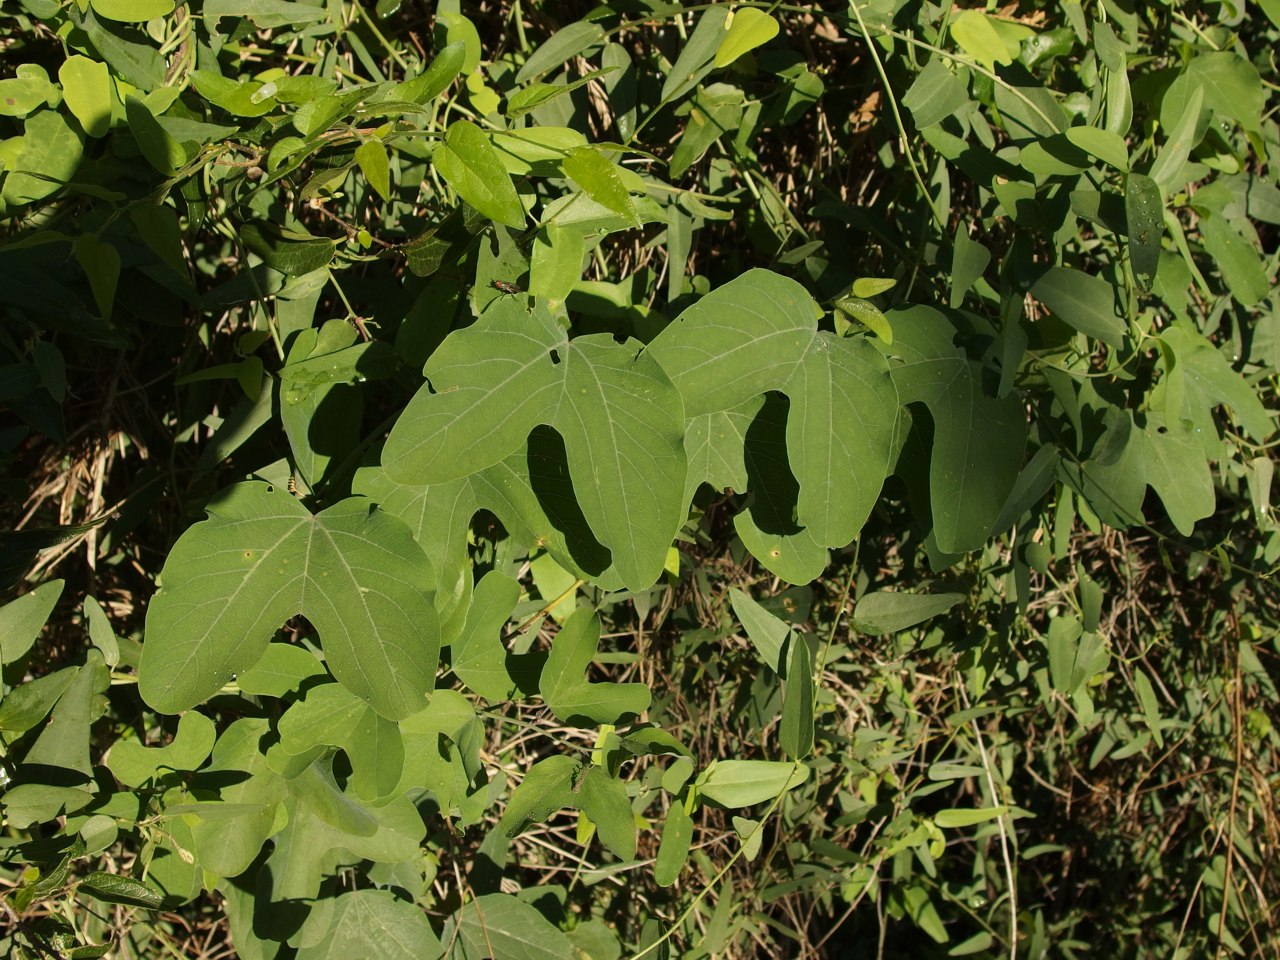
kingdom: Plantae
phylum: Tracheophyta
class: Magnoliopsida
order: Malpighiales
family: Passifloraceae
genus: Passiflora
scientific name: Passiflora mexicana
